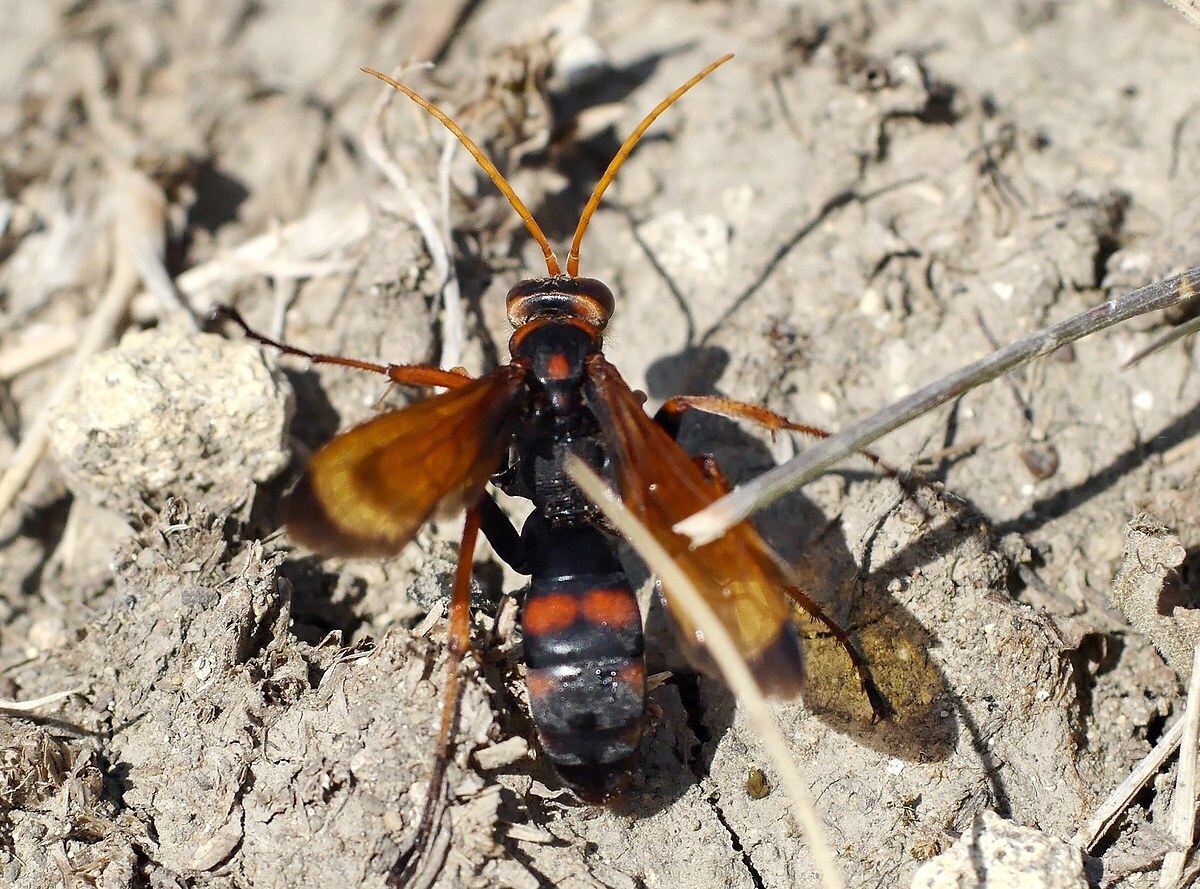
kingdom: Animalia
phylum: Arthropoda
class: Insecta
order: Hymenoptera
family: Pompilidae
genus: Cryptocheilus
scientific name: Cryptocheilus rubellus
